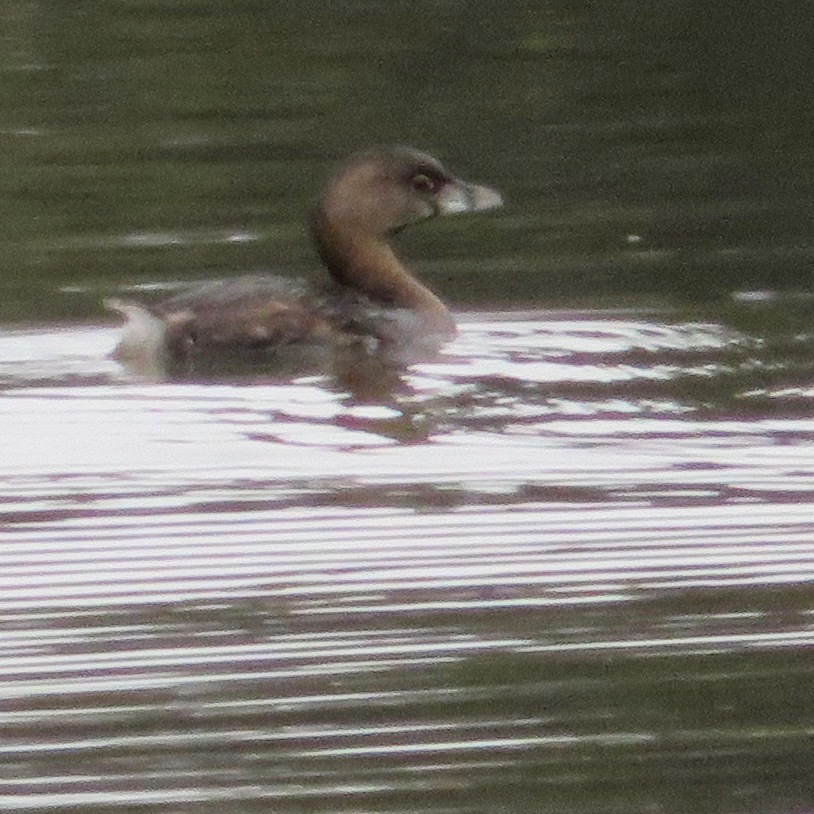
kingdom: Animalia
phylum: Chordata
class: Aves
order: Podicipediformes
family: Podicipedidae
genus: Podilymbus
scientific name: Podilymbus podiceps
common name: Pied-billed grebe
